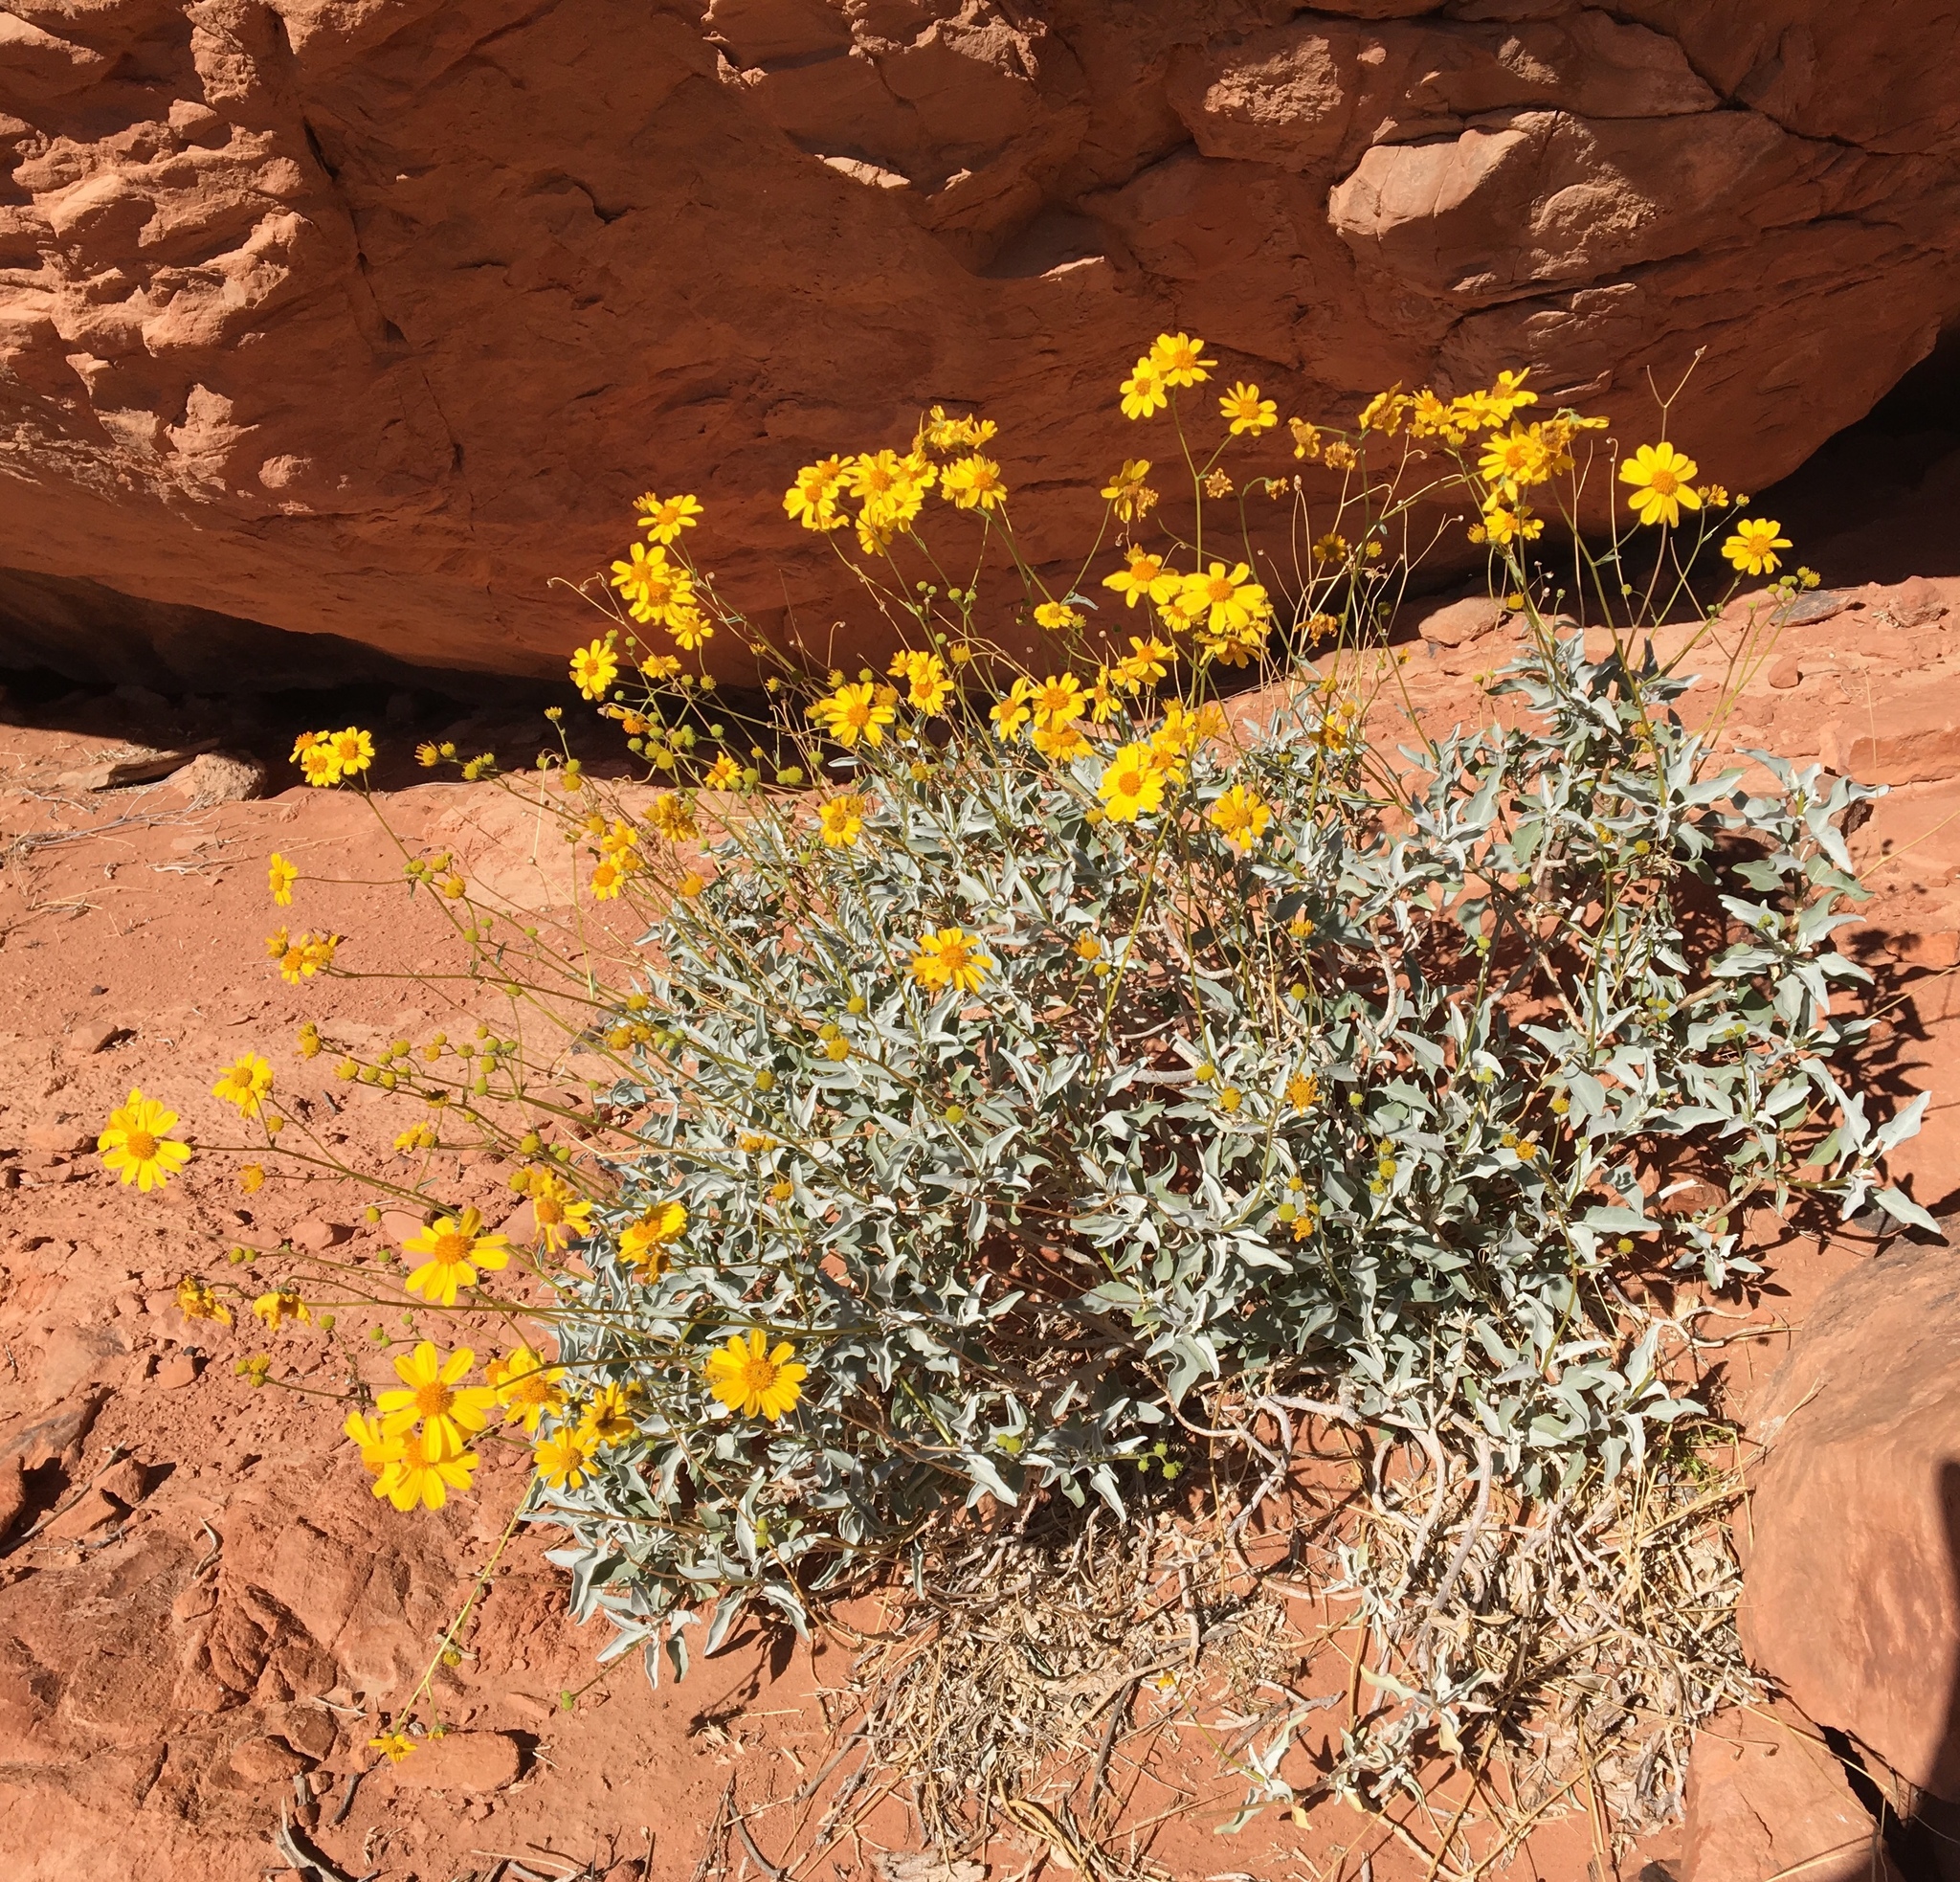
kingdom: Plantae
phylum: Tracheophyta
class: Magnoliopsida
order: Asterales
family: Asteraceae
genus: Encelia
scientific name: Encelia farinosa
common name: Brittlebush
